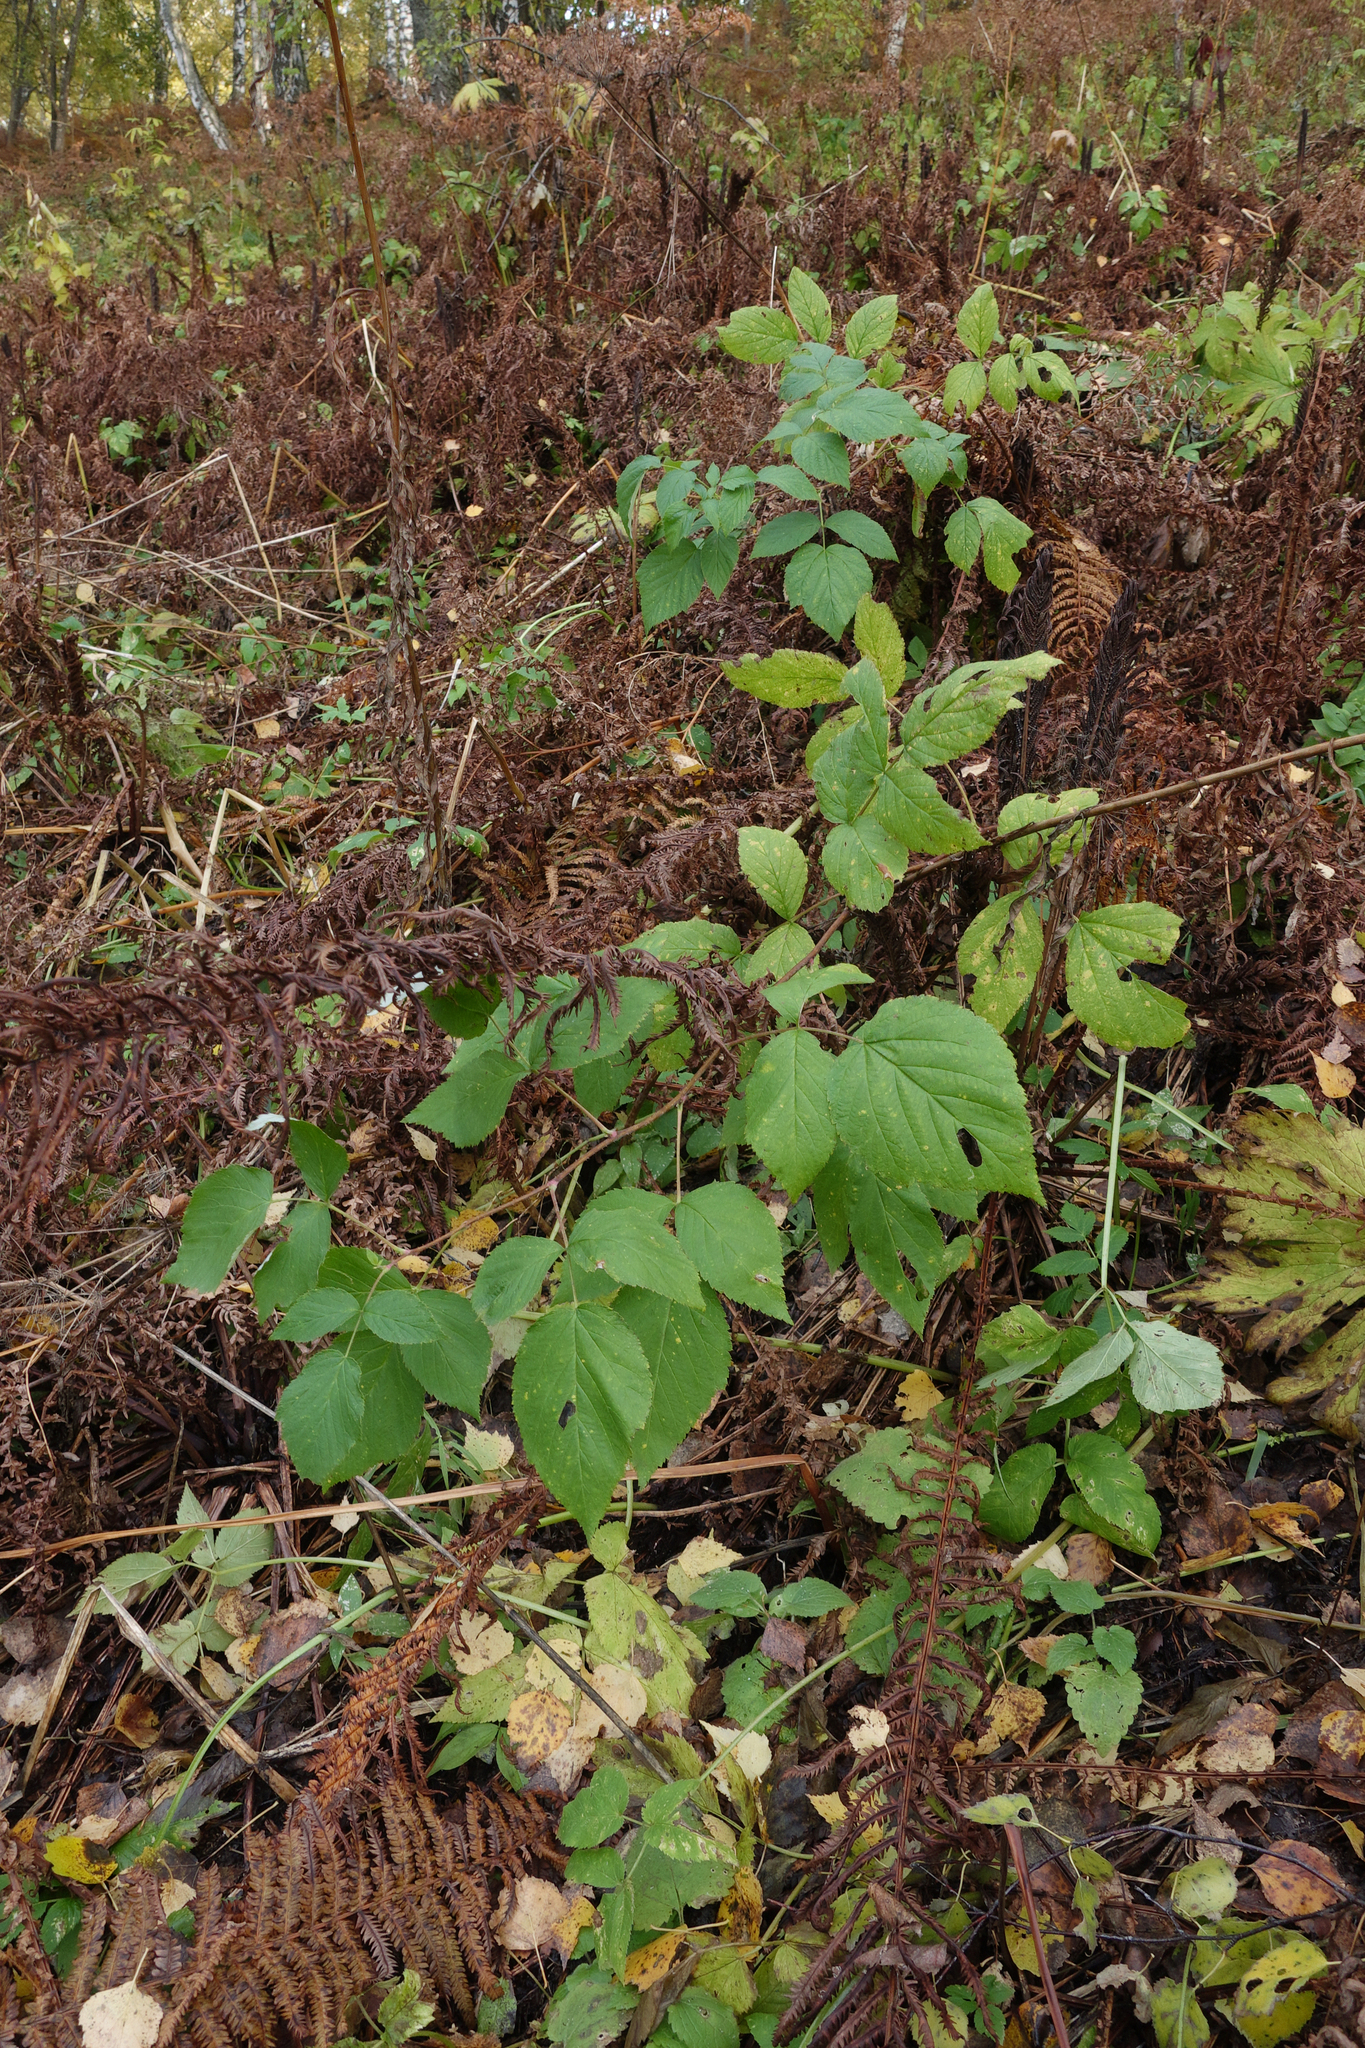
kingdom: Plantae
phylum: Tracheophyta
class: Magnoliopsida
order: Rosales
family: Rosaceae
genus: Rubus
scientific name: Rubus idaeus
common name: Raspberry
